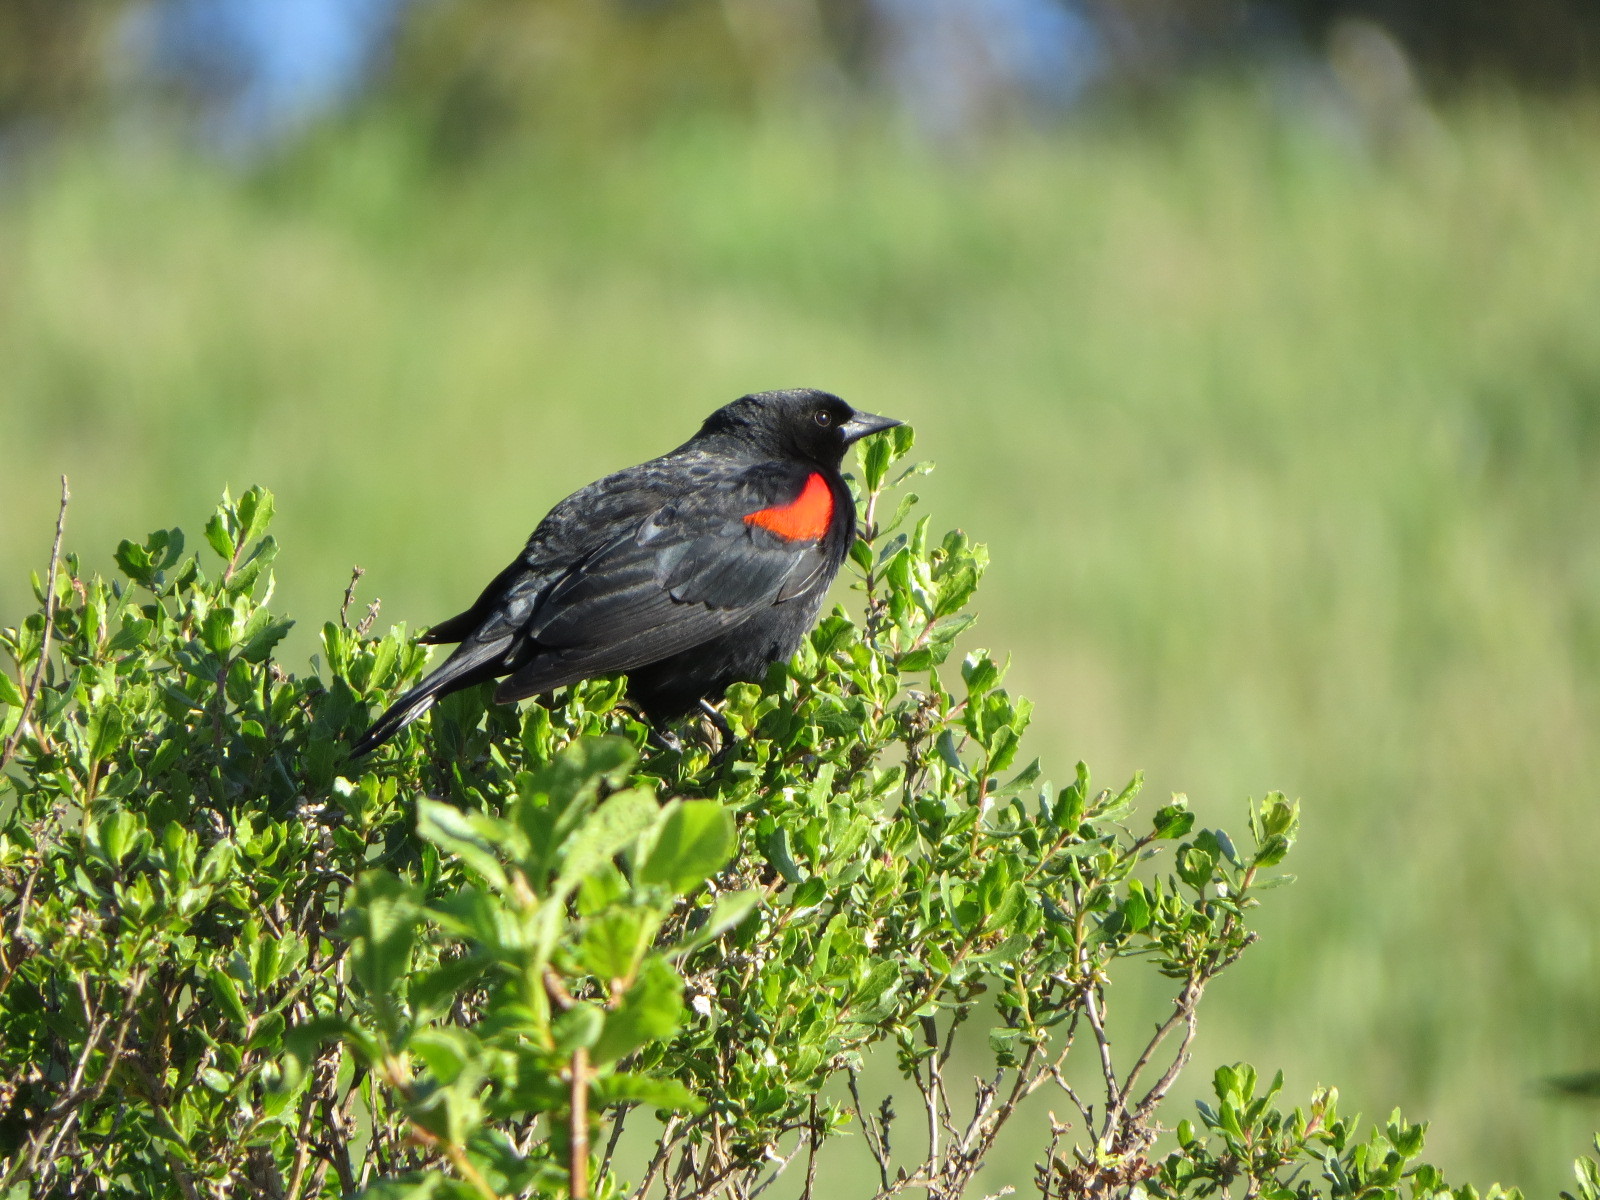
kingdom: Animalia
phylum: Chordata
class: Aves
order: Passeriformes
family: Icteridae
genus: Agelaius
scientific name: Agelaius phoeniceus
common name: Red-winged blackbird
